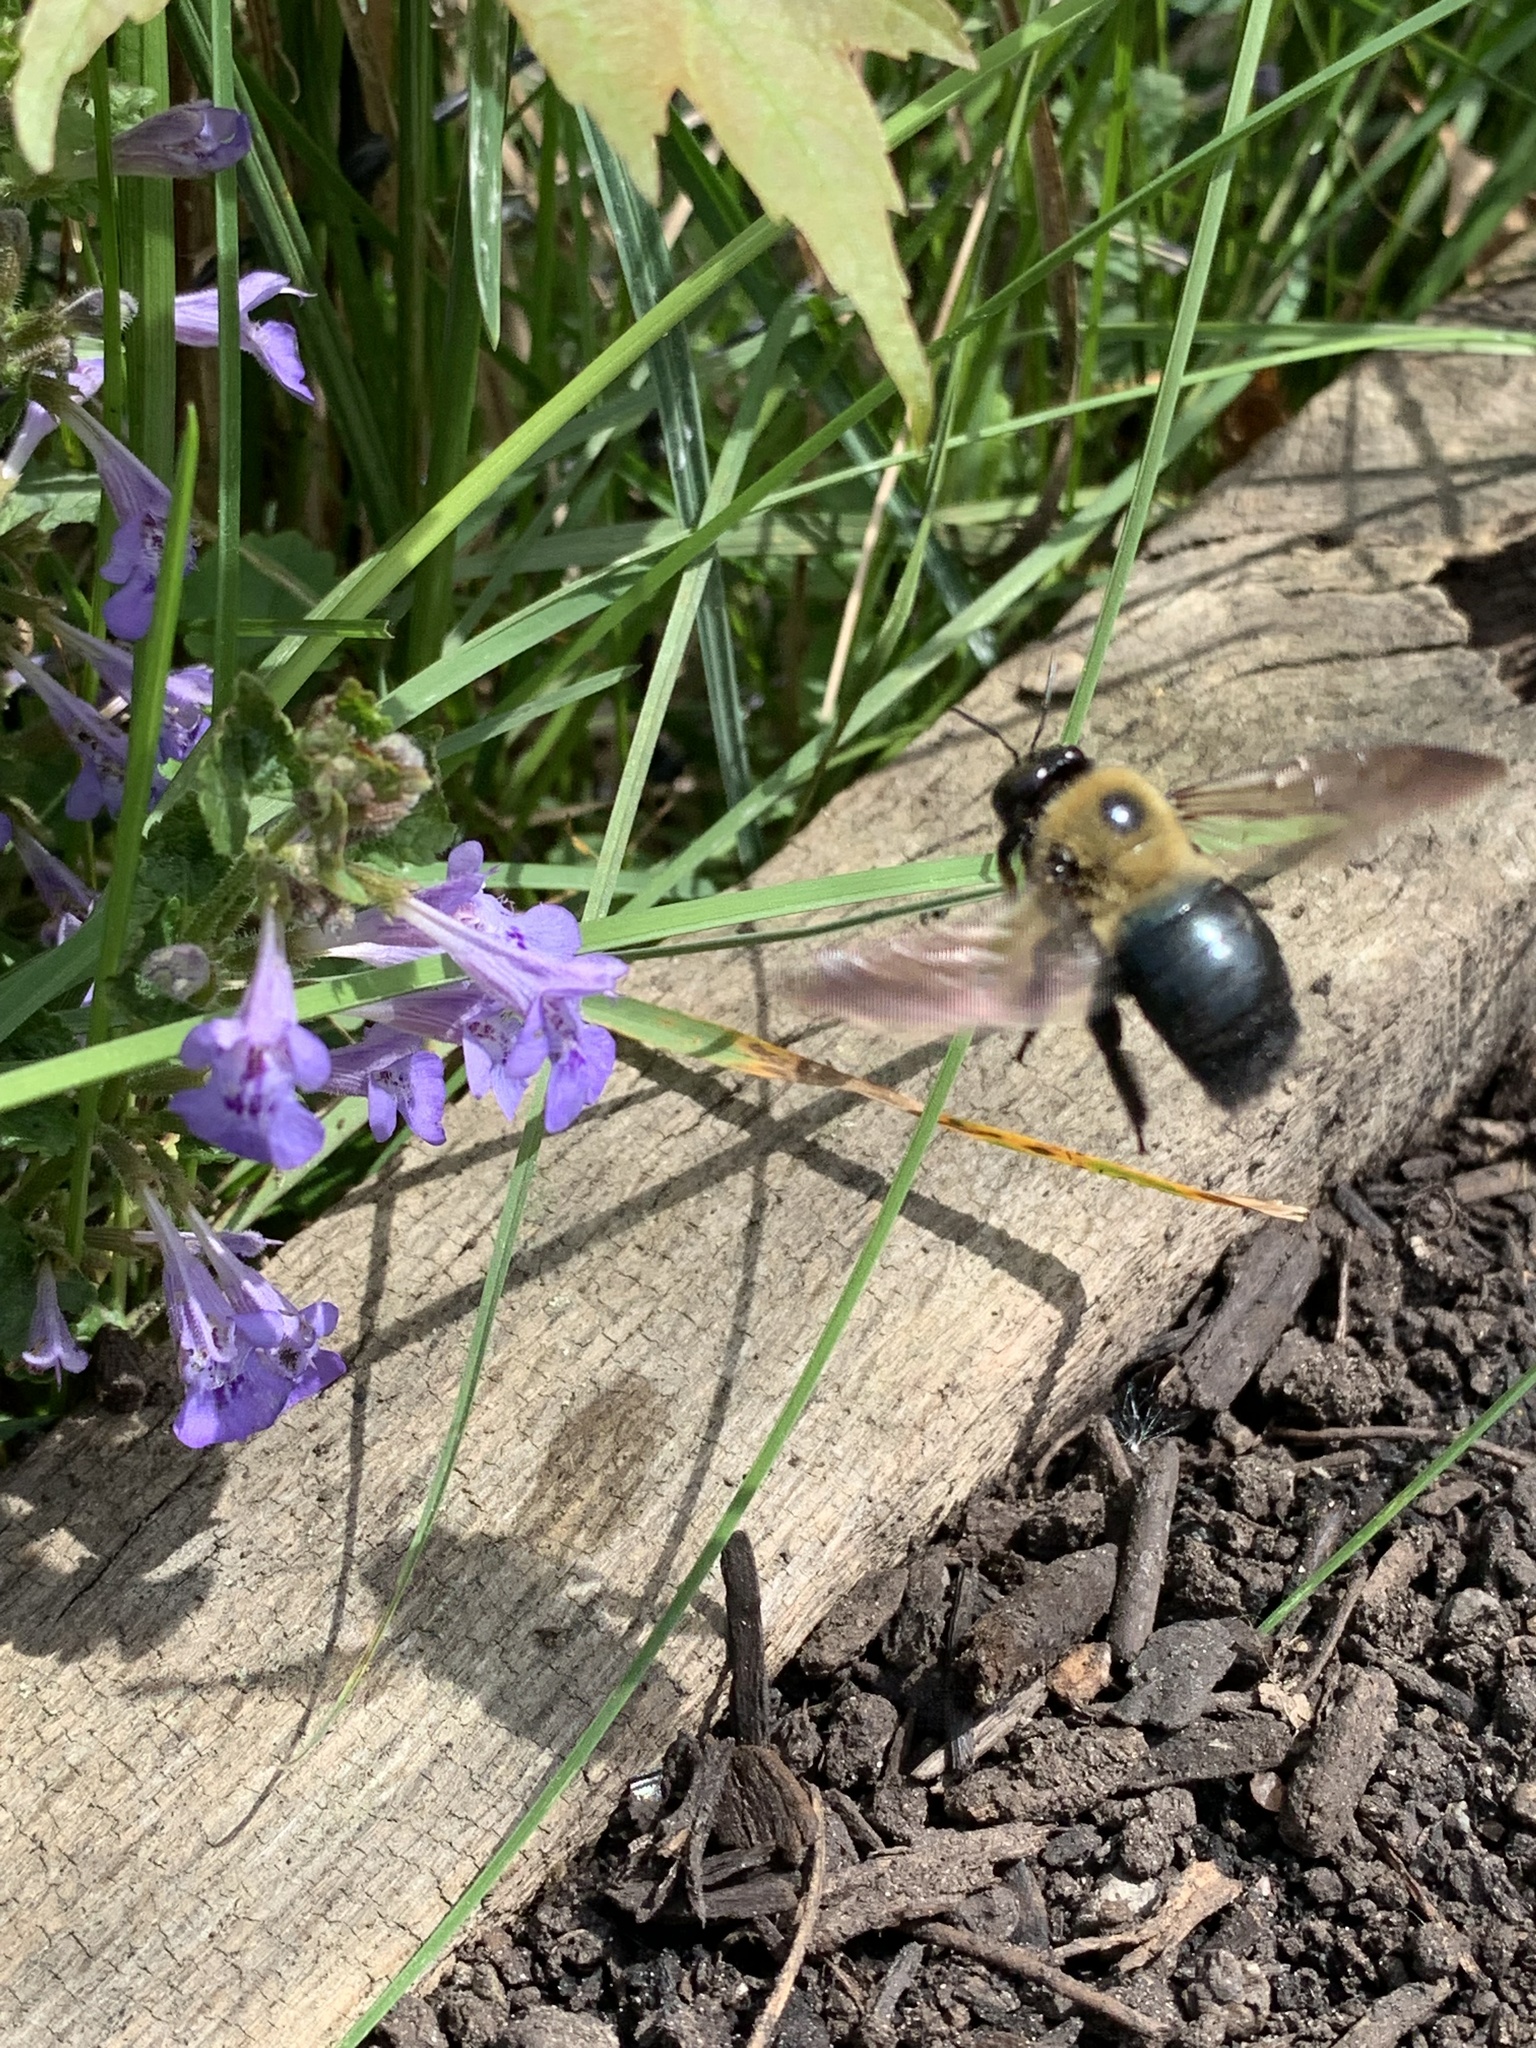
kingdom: Animalia
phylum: Arthropoda
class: Insecta
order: Hymenoptera
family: Apidae
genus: Xylocopa
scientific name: Xylocopa virginica
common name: Carpenter bee
